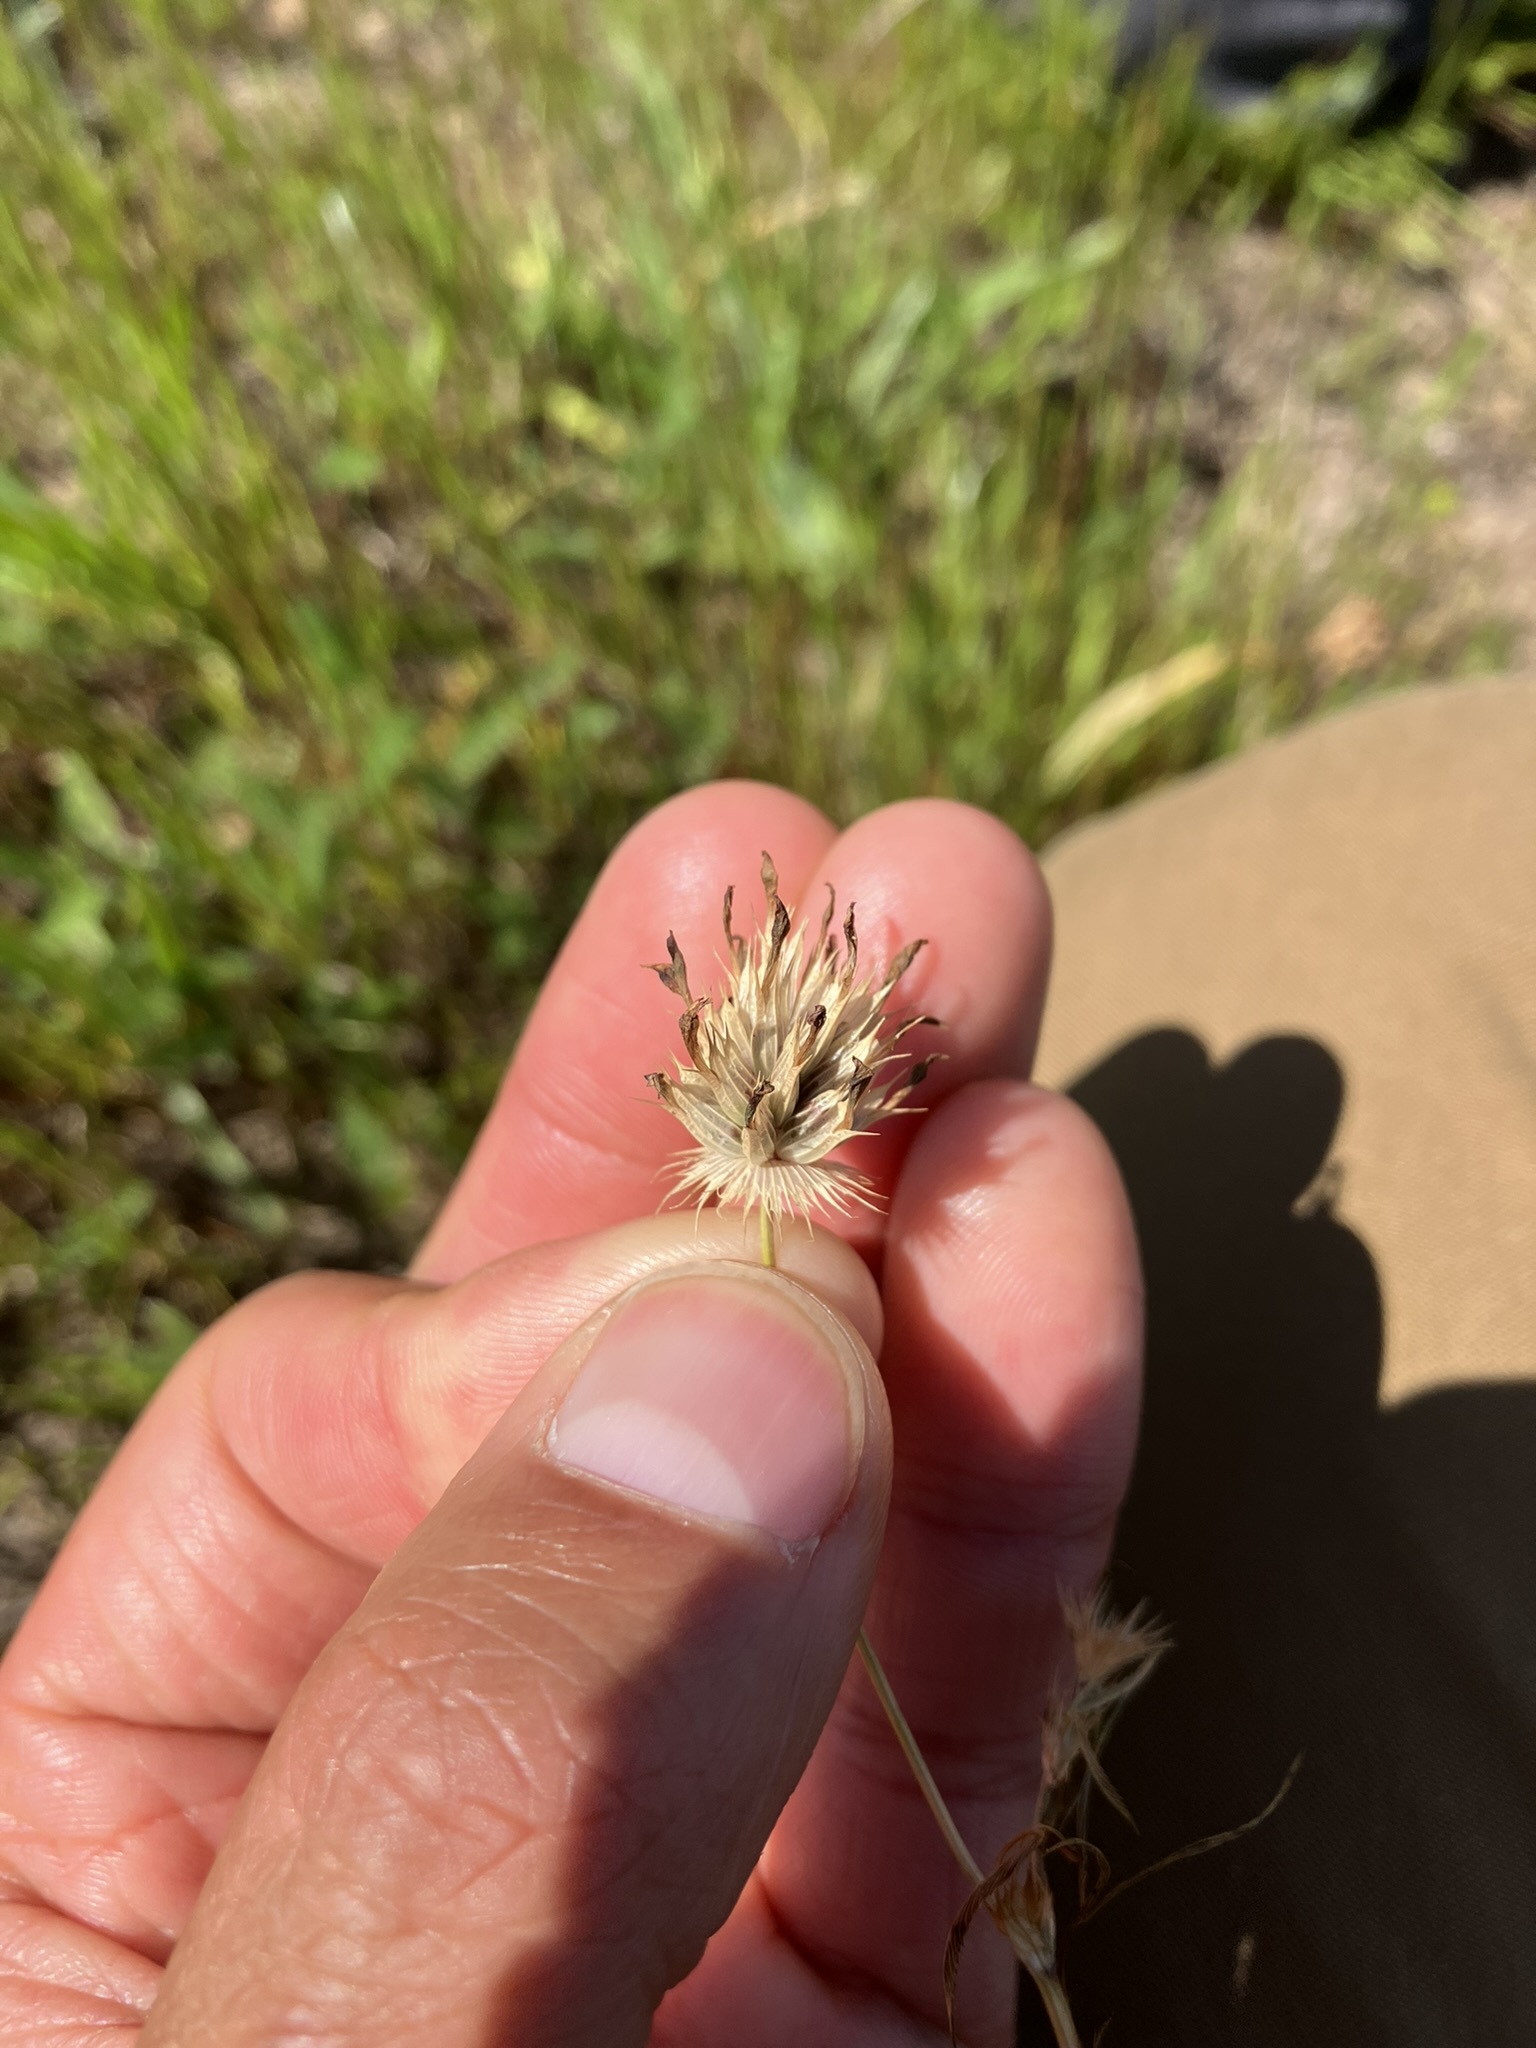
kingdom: Plantae
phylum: Tracheophyta
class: Magnoliopsida
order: Fabales
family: Fabaceae
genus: Trifolium
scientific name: Trifolium willdenovii
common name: Tomcat clover
